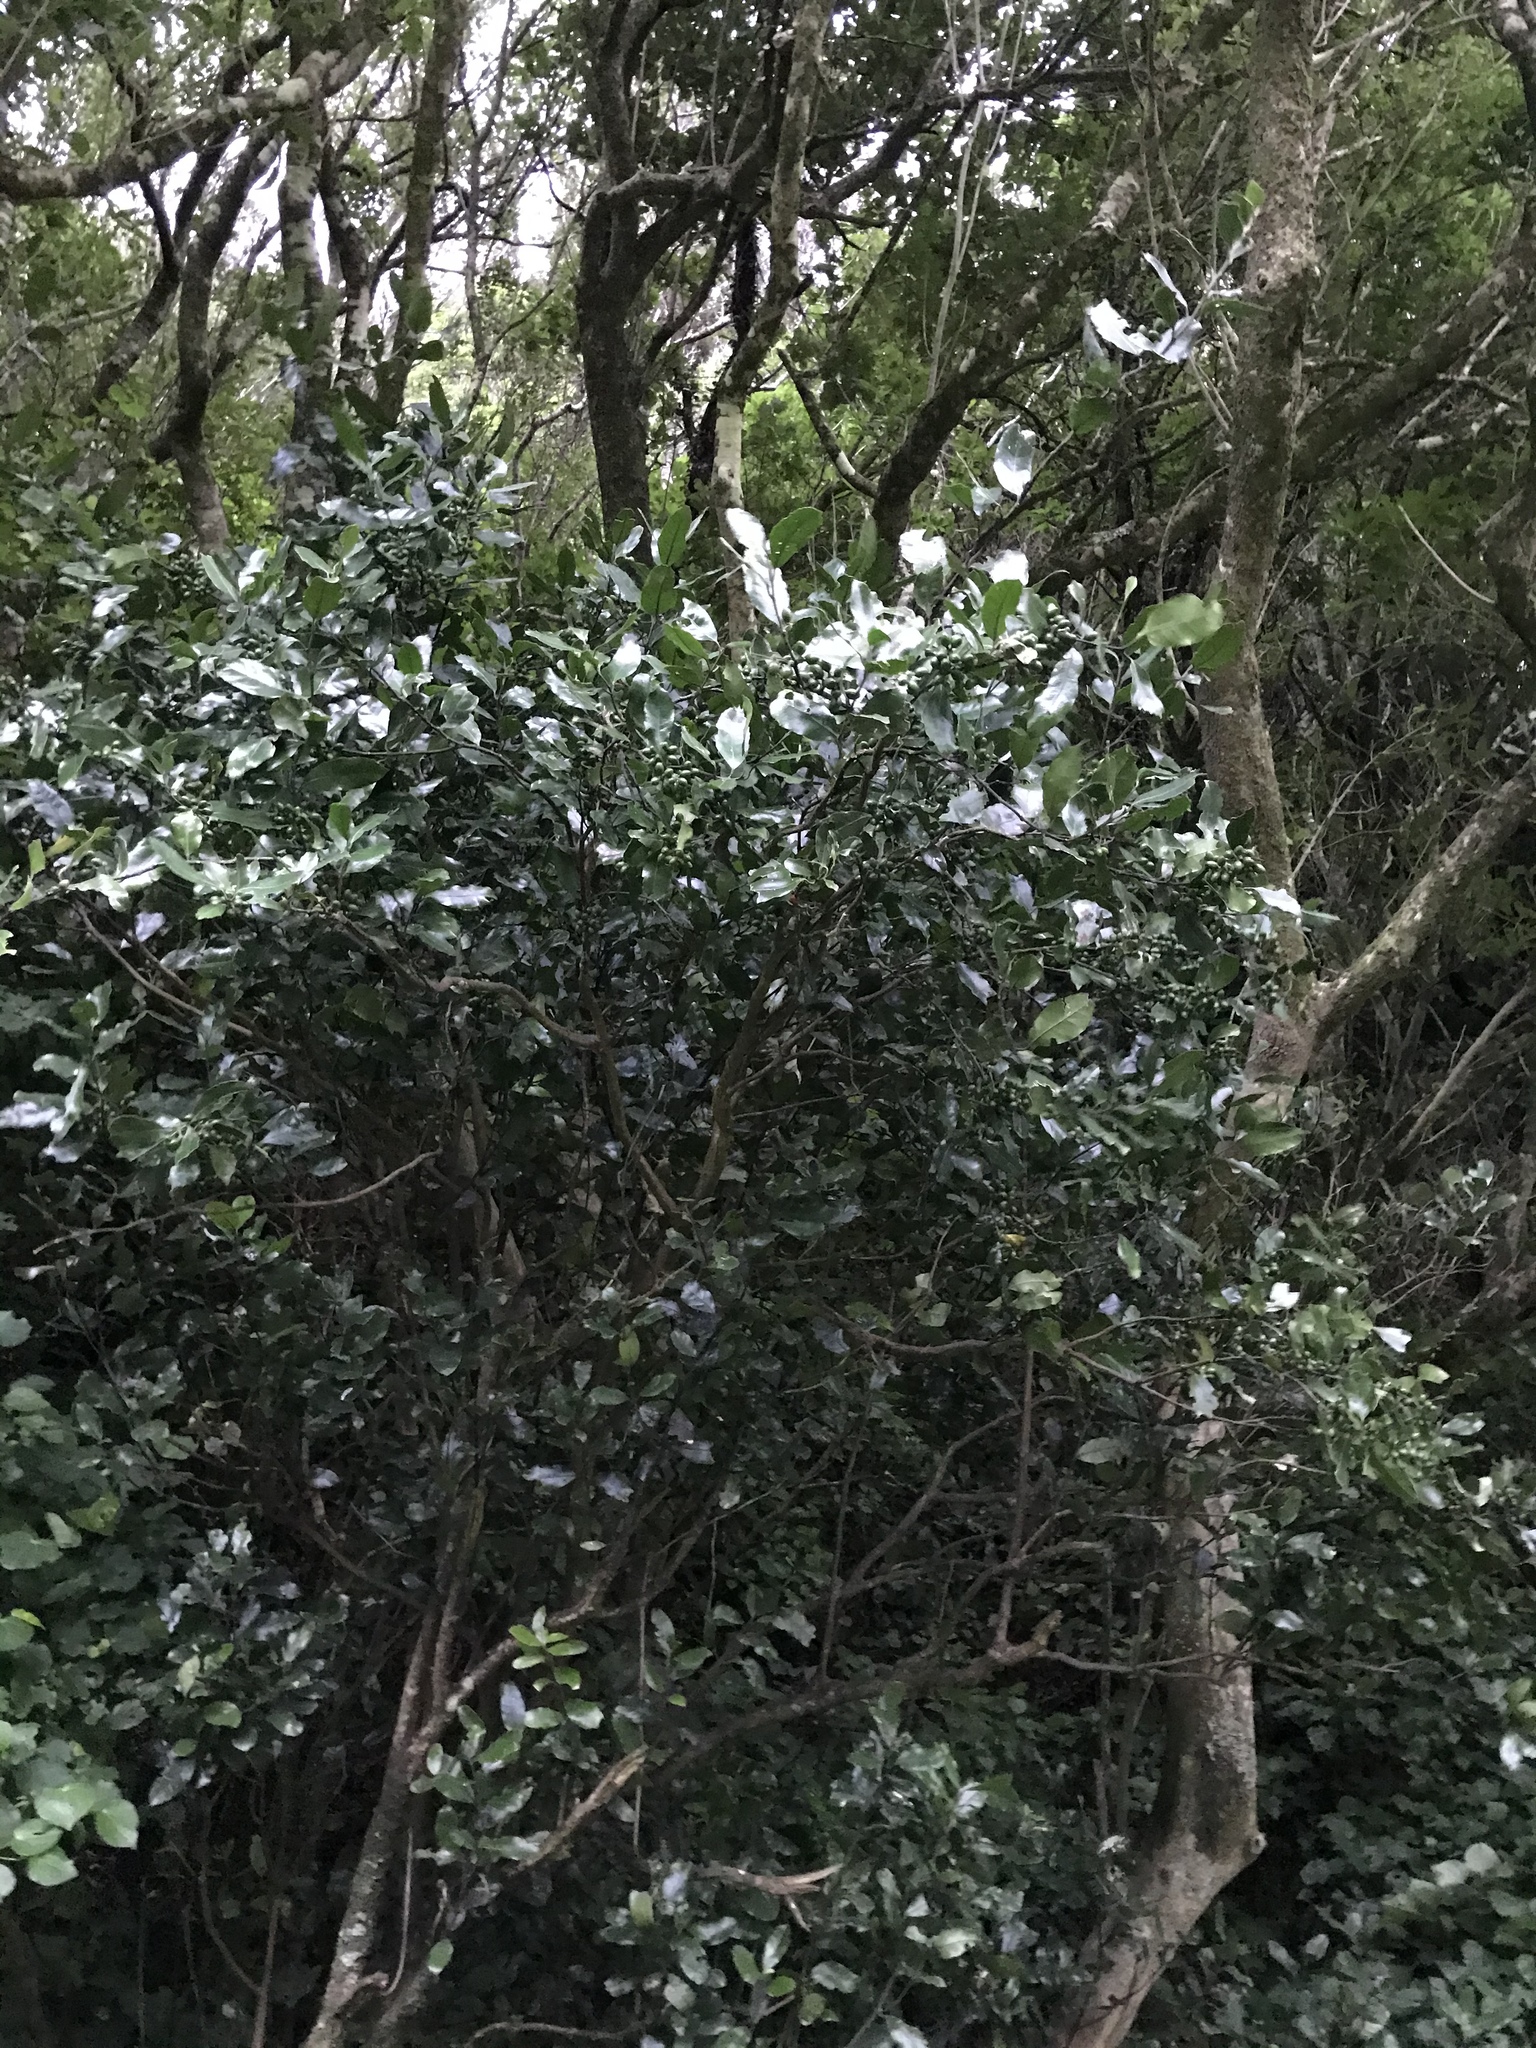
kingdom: Plantae
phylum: Tracheophyta
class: Magnoliopsida
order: Laurales
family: Monimiaceae
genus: Hedycarya
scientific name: Hedycarya arborea
